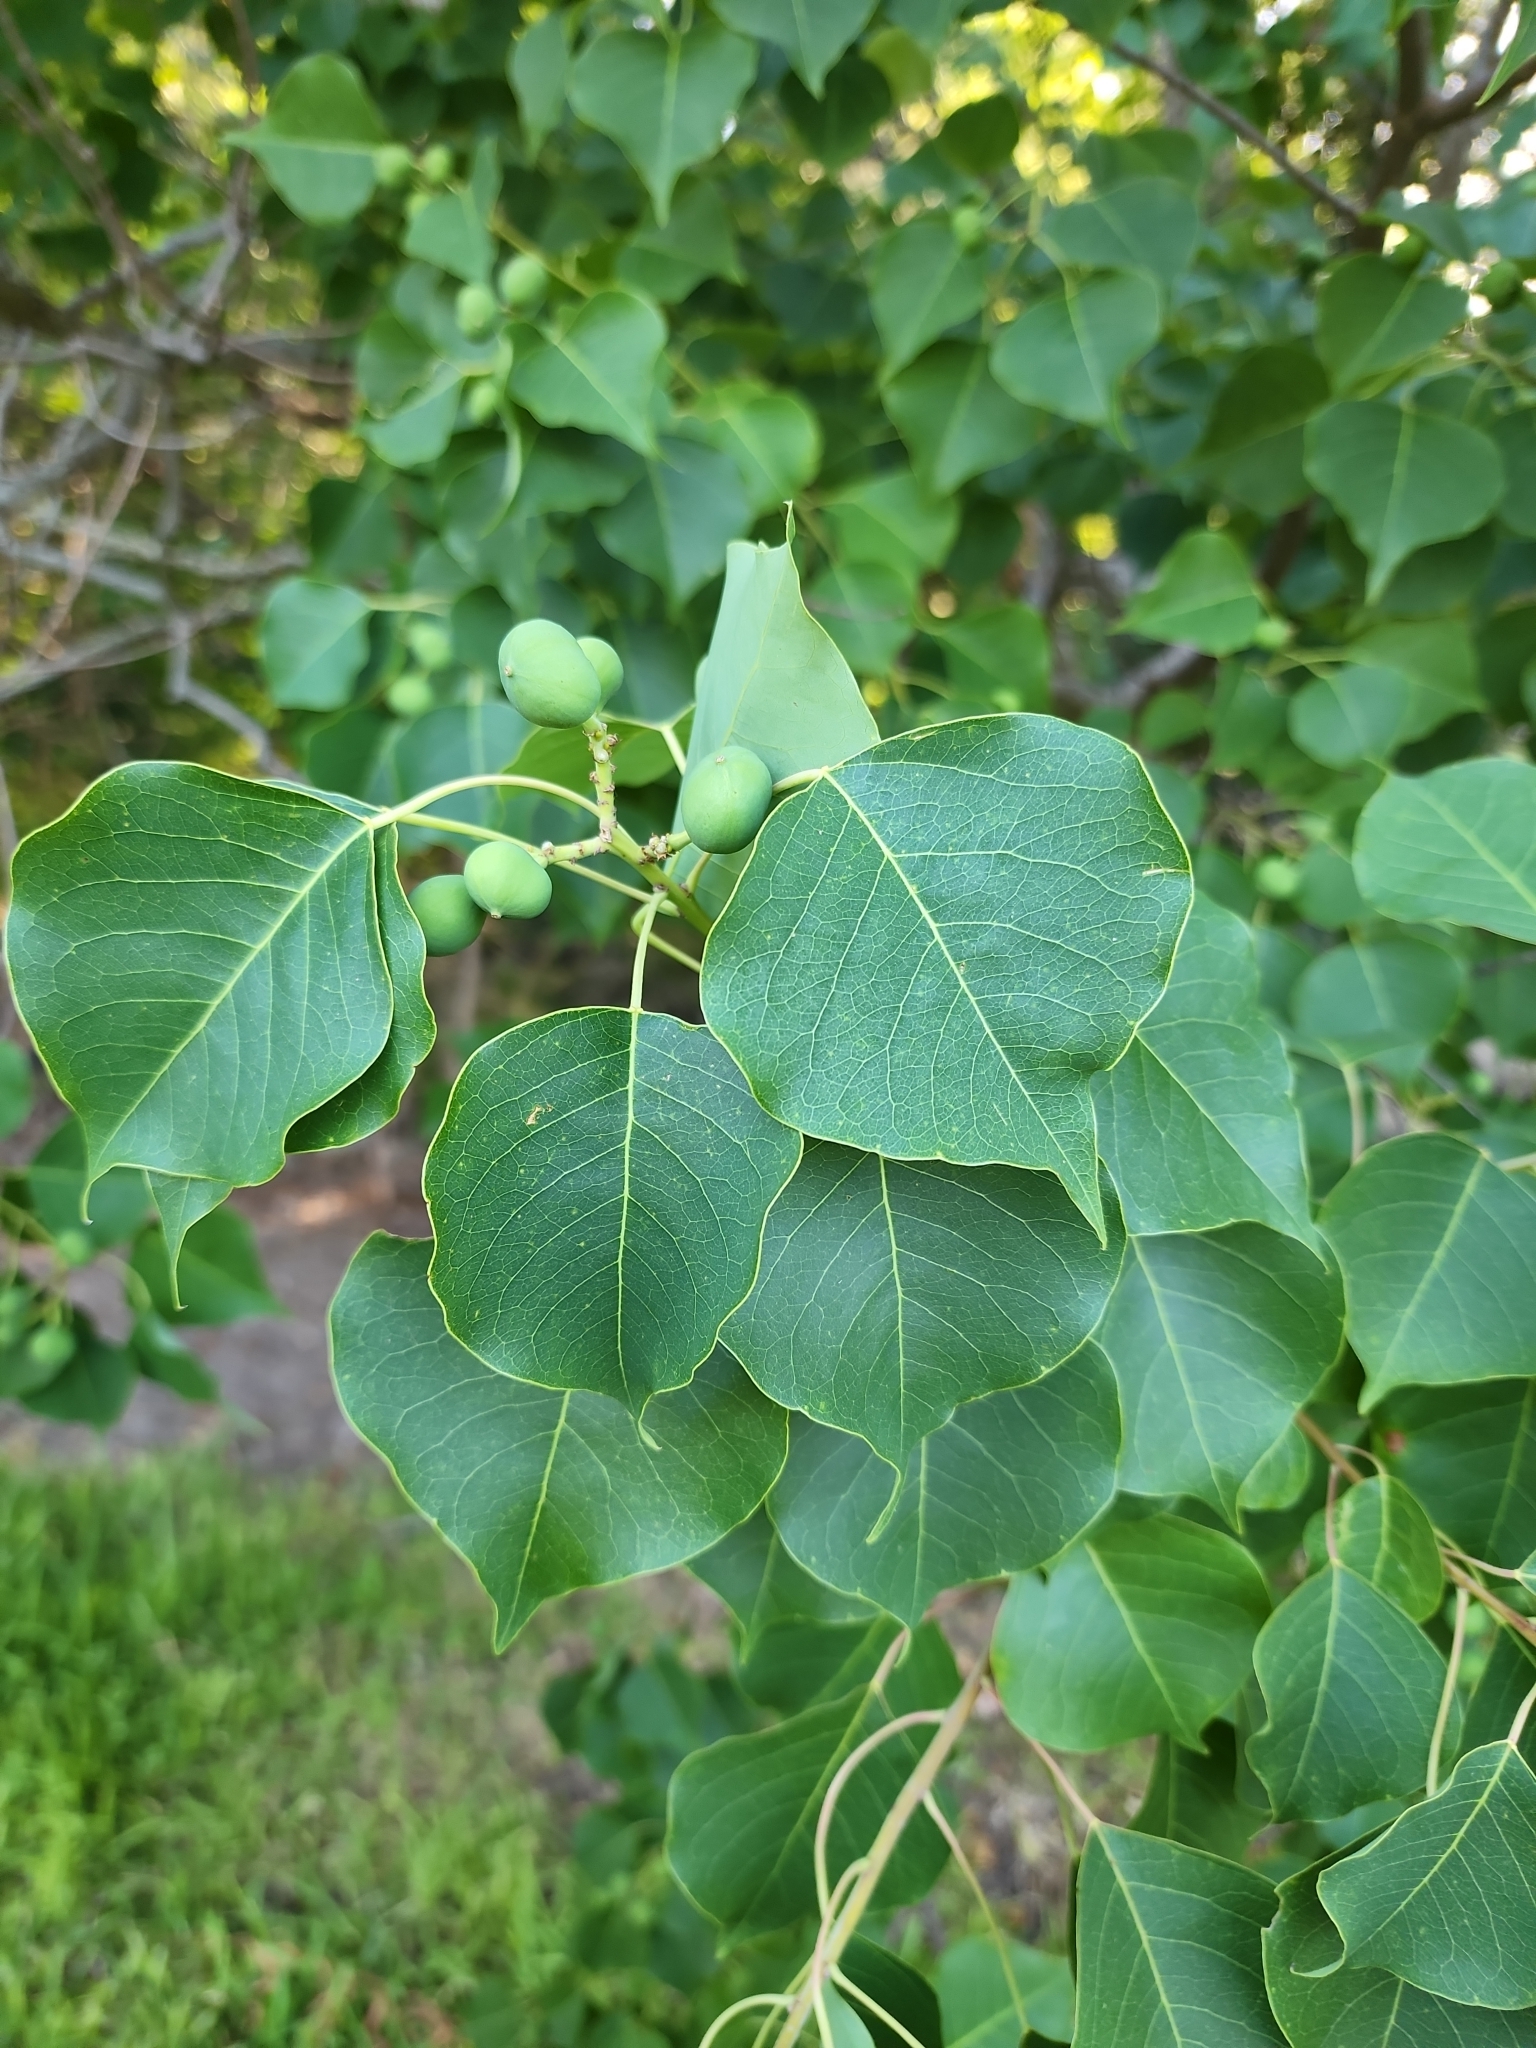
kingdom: Plantae
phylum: Tracheophyta
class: Magnoliopsida
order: Malpighiales
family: Euphorbiaceae
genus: Triadica
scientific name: Triadica sebifera
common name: Chinese tallow
